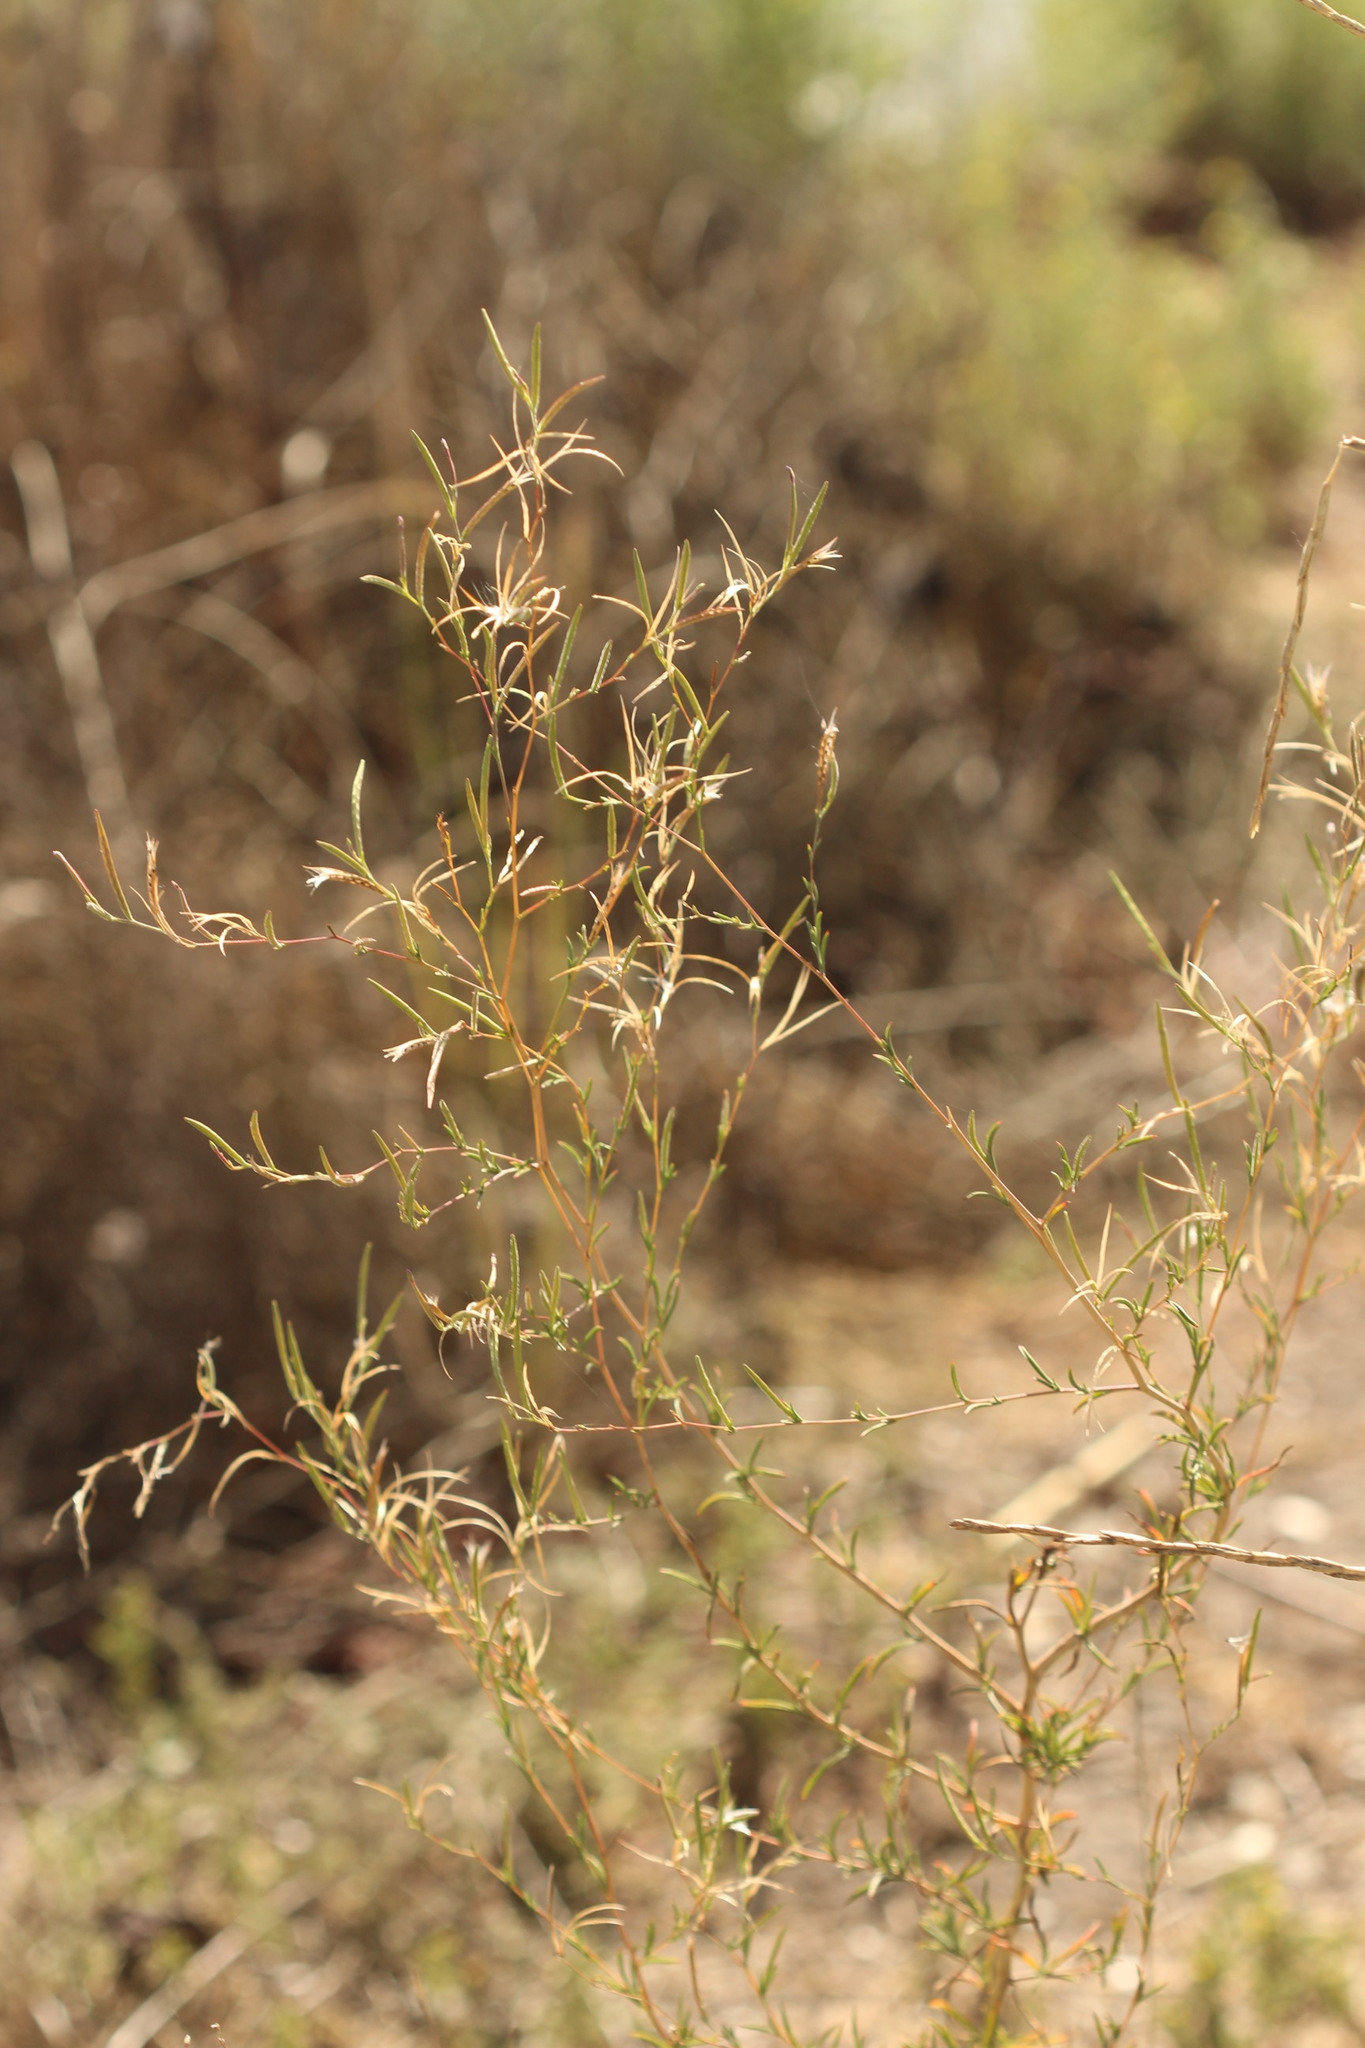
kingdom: Plantae
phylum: Tracheophyta
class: Magnoliopsida
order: Myrtales
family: Onagraceae
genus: Epilobium
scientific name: Epilobium brachycarpum
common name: Annual willowherb
